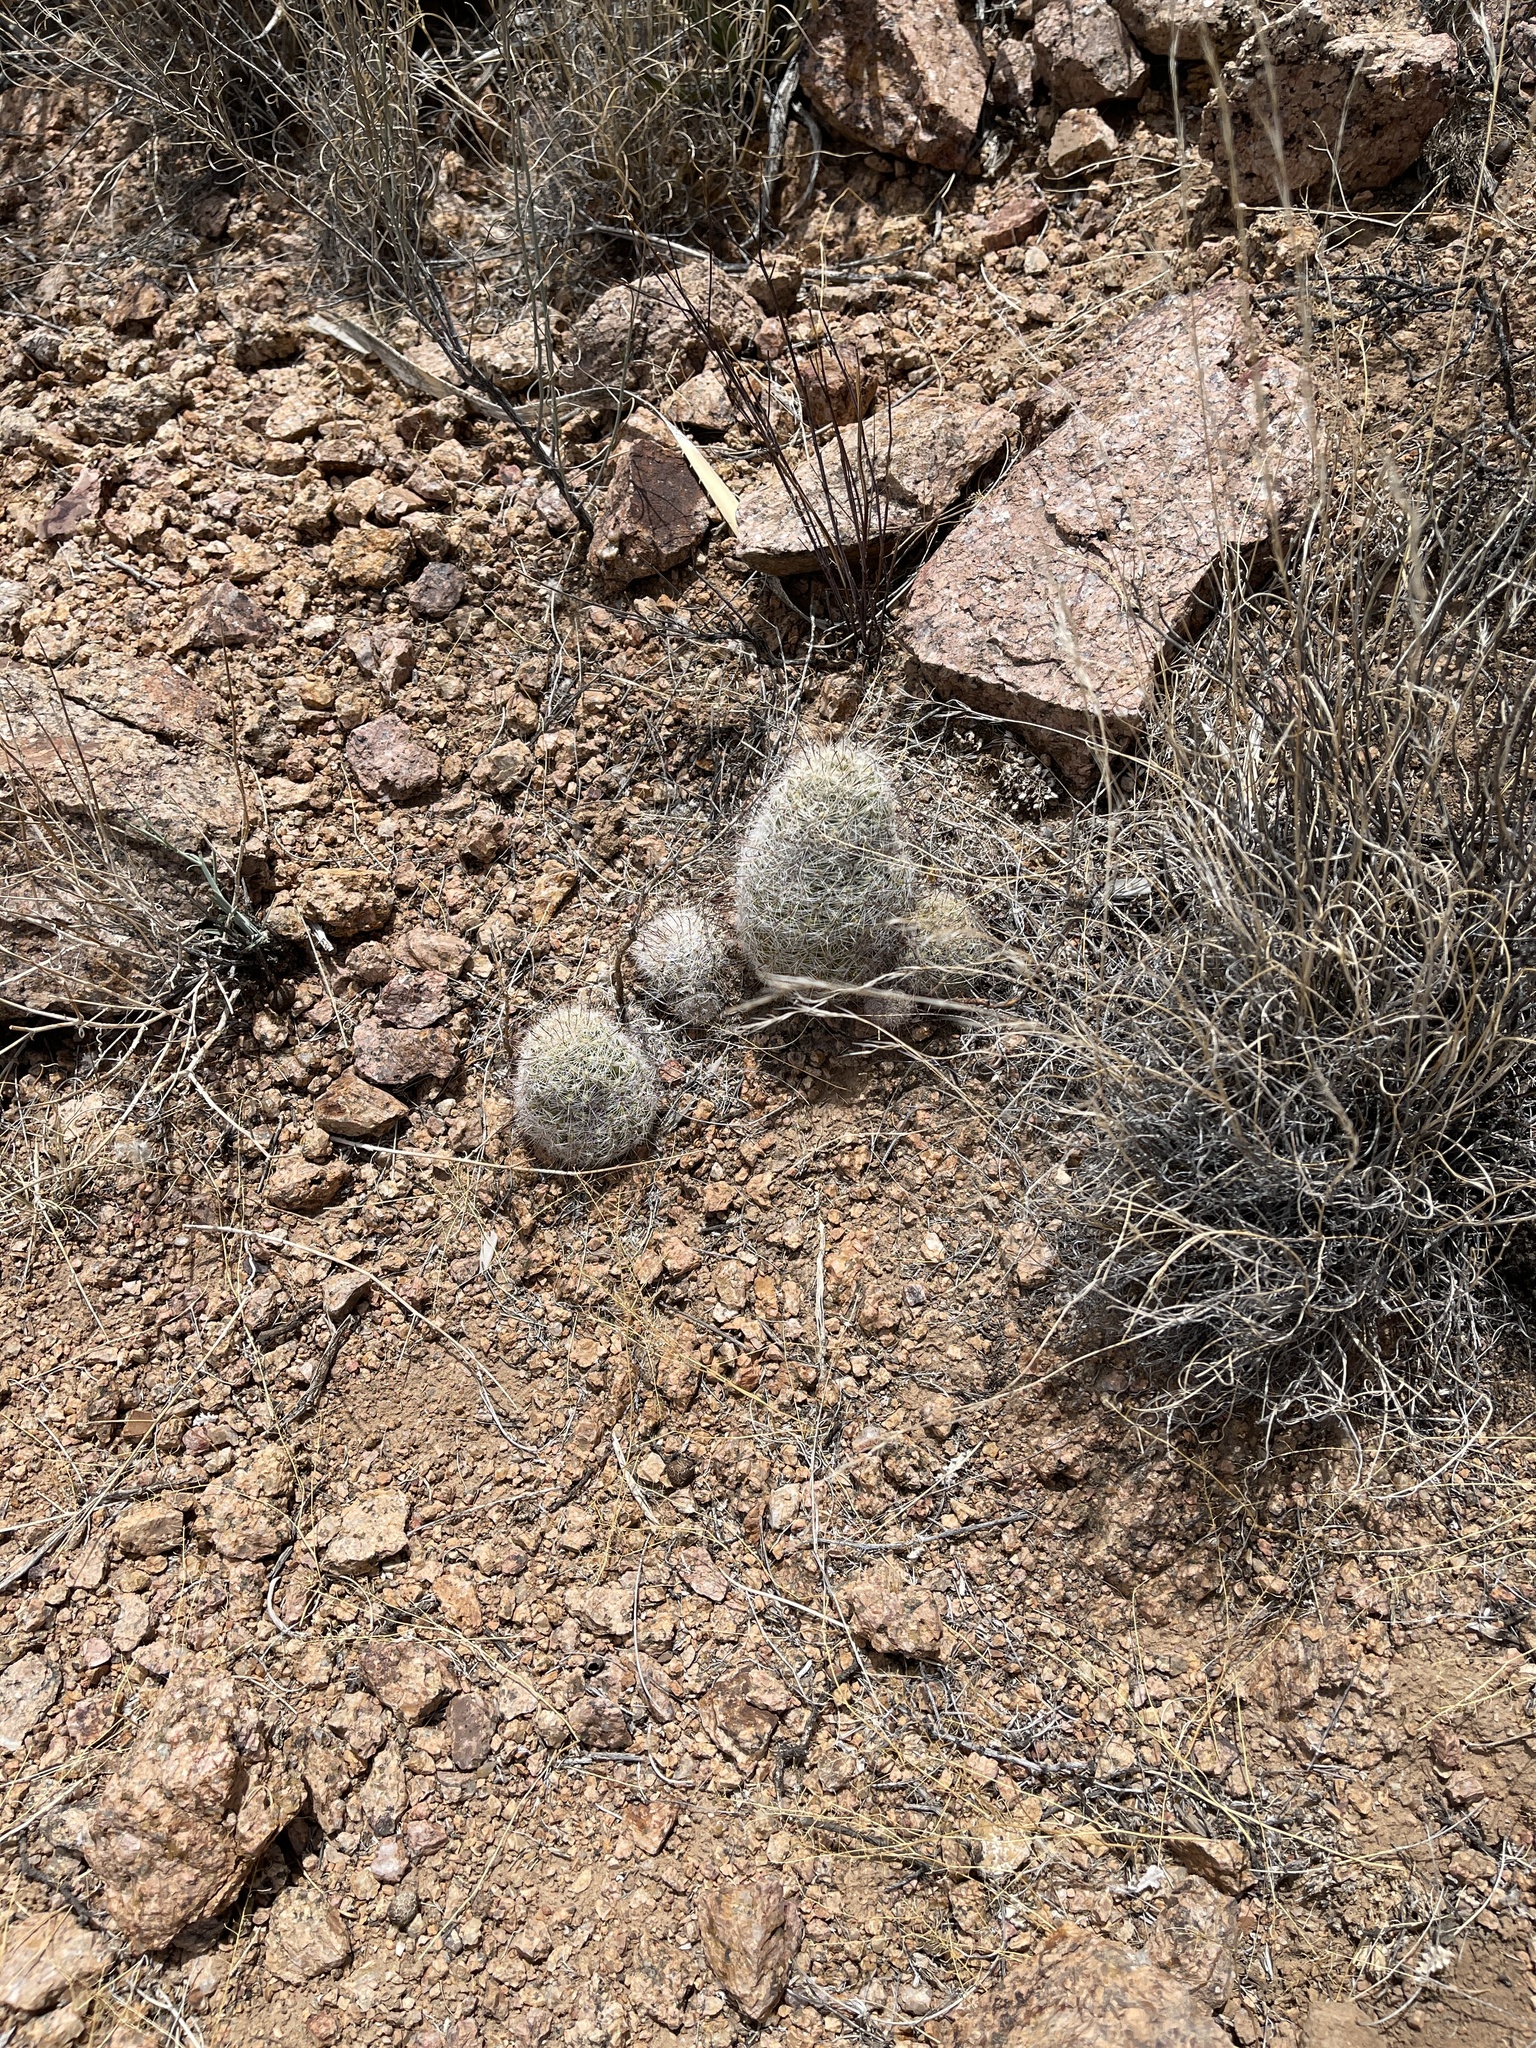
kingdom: Plantae
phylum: Tracheophyta
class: Magnoliopsida
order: Caryophyllales
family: Cactaceae
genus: Cochemiea
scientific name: Cochemiea grahamii
